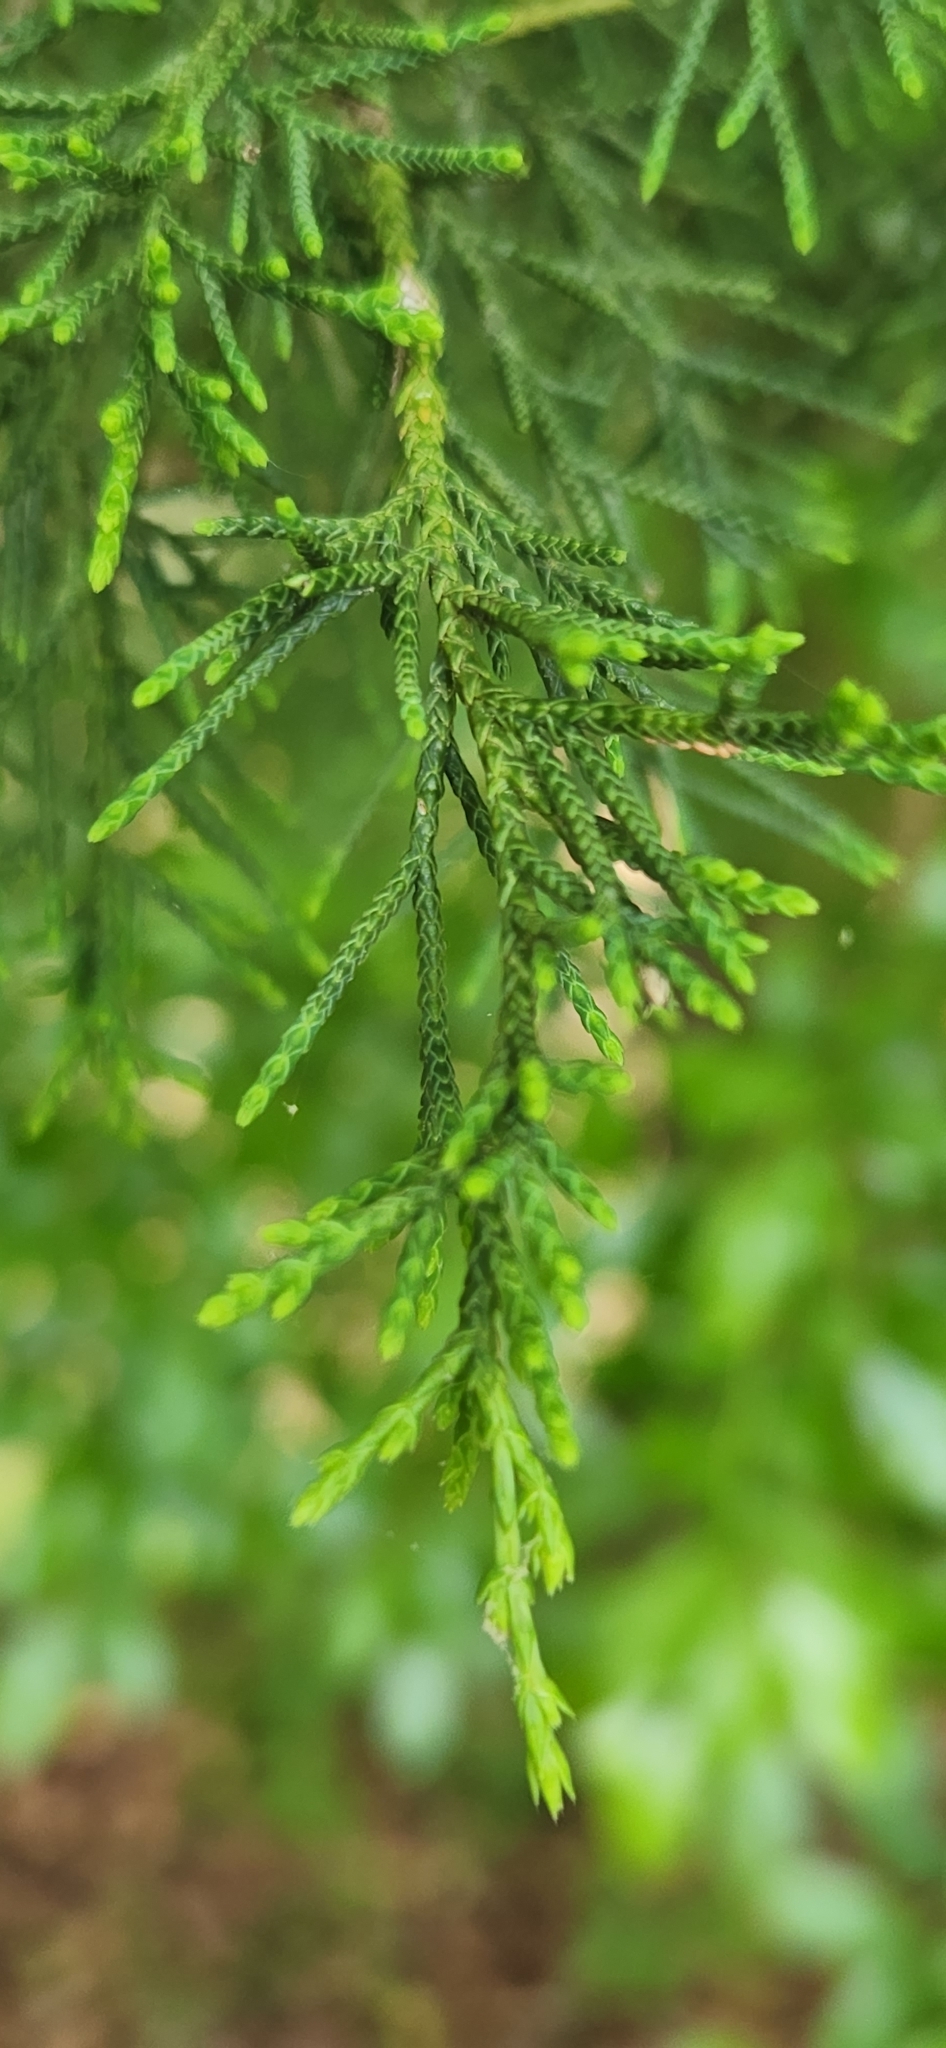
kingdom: Plantae
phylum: Tracheophyta
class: Pinopsida
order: Pinales
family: Cupressaceae
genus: Juniperus
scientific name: Juniperus virginiana
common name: Red juniper
